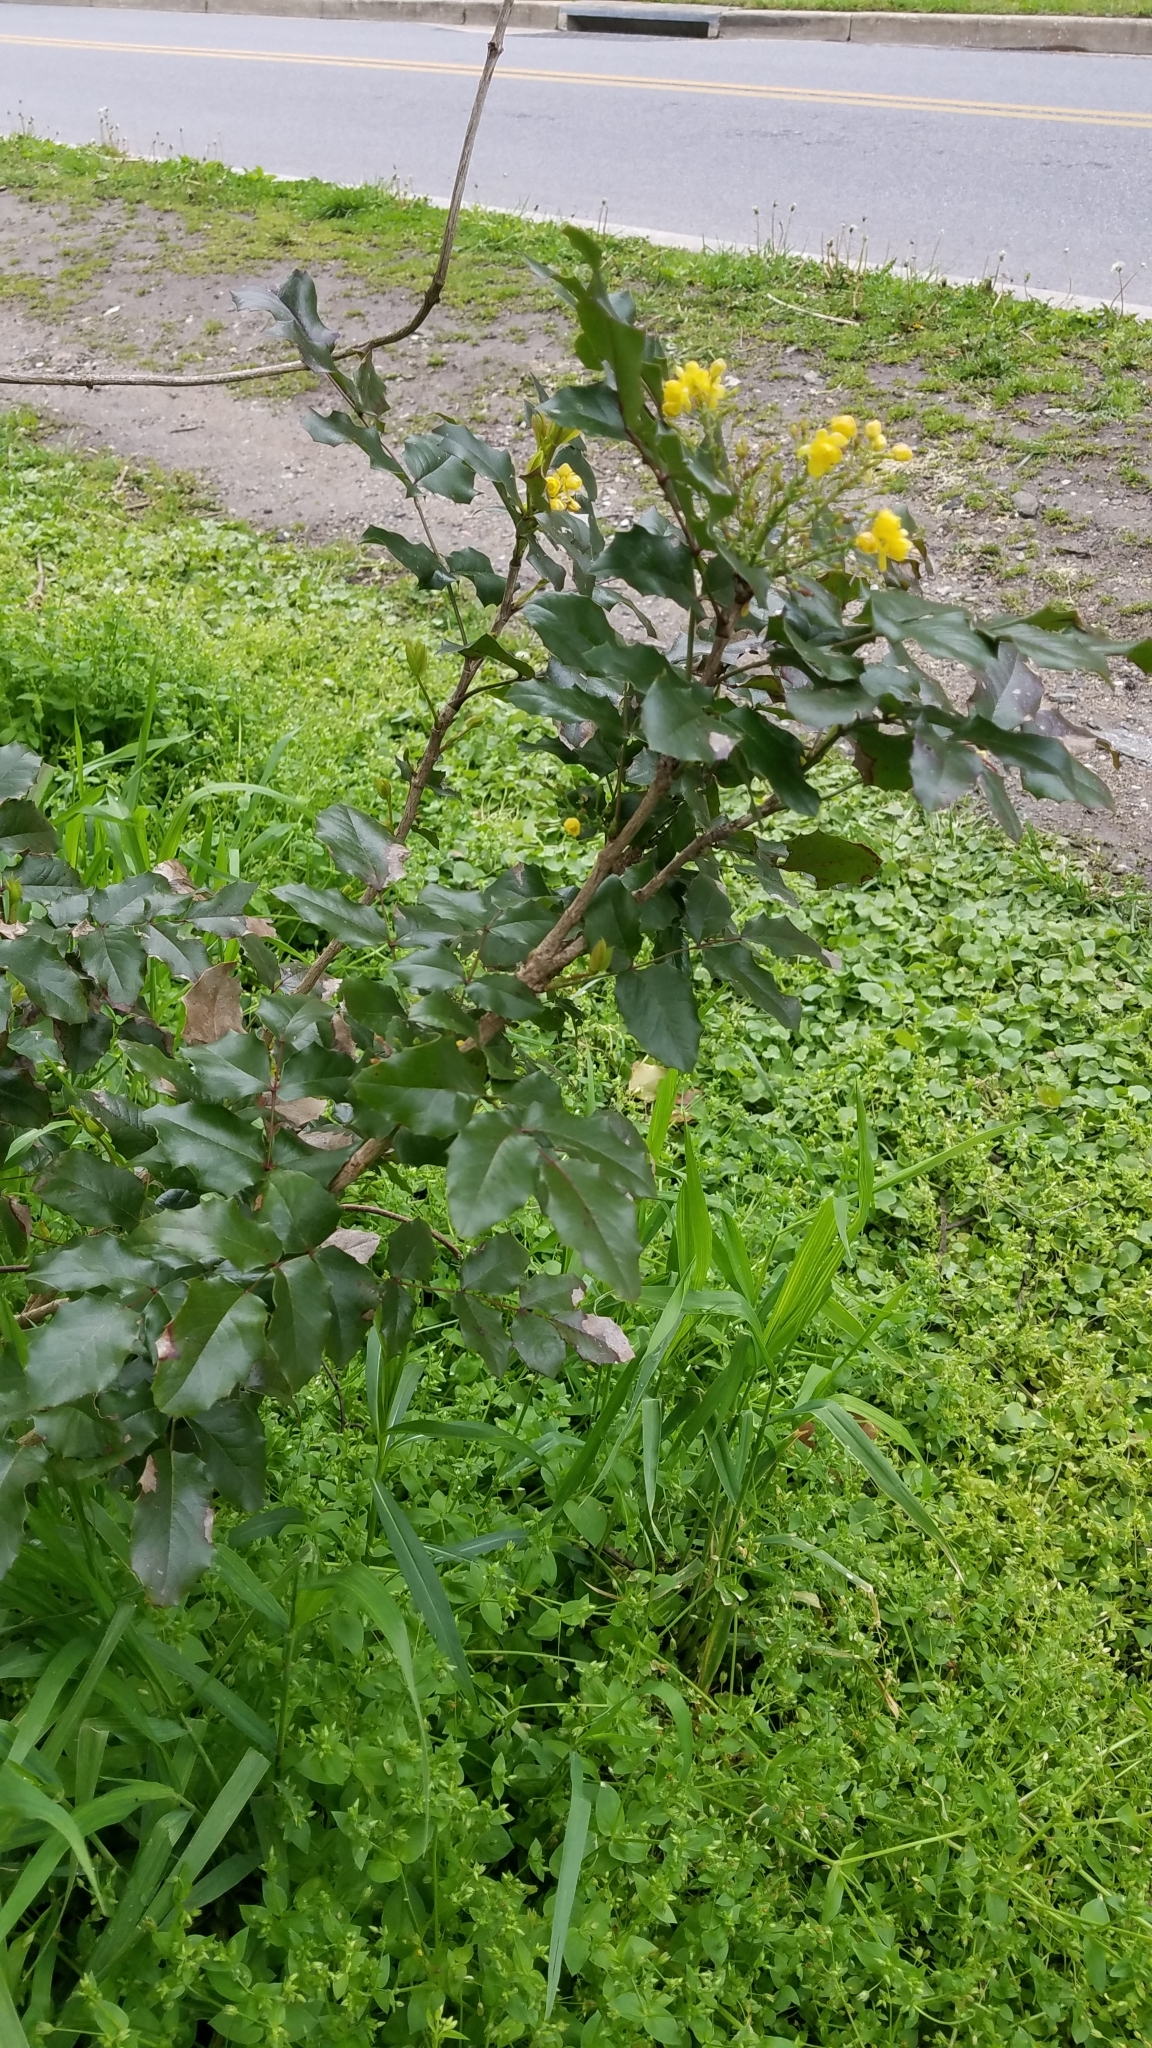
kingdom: Plantae
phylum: Tracheophyta
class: Magnoliopsida
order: Ranunculales
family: Berberidaceae
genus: Mahonia
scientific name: Mahonia aquifolium
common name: Oregon-grape
